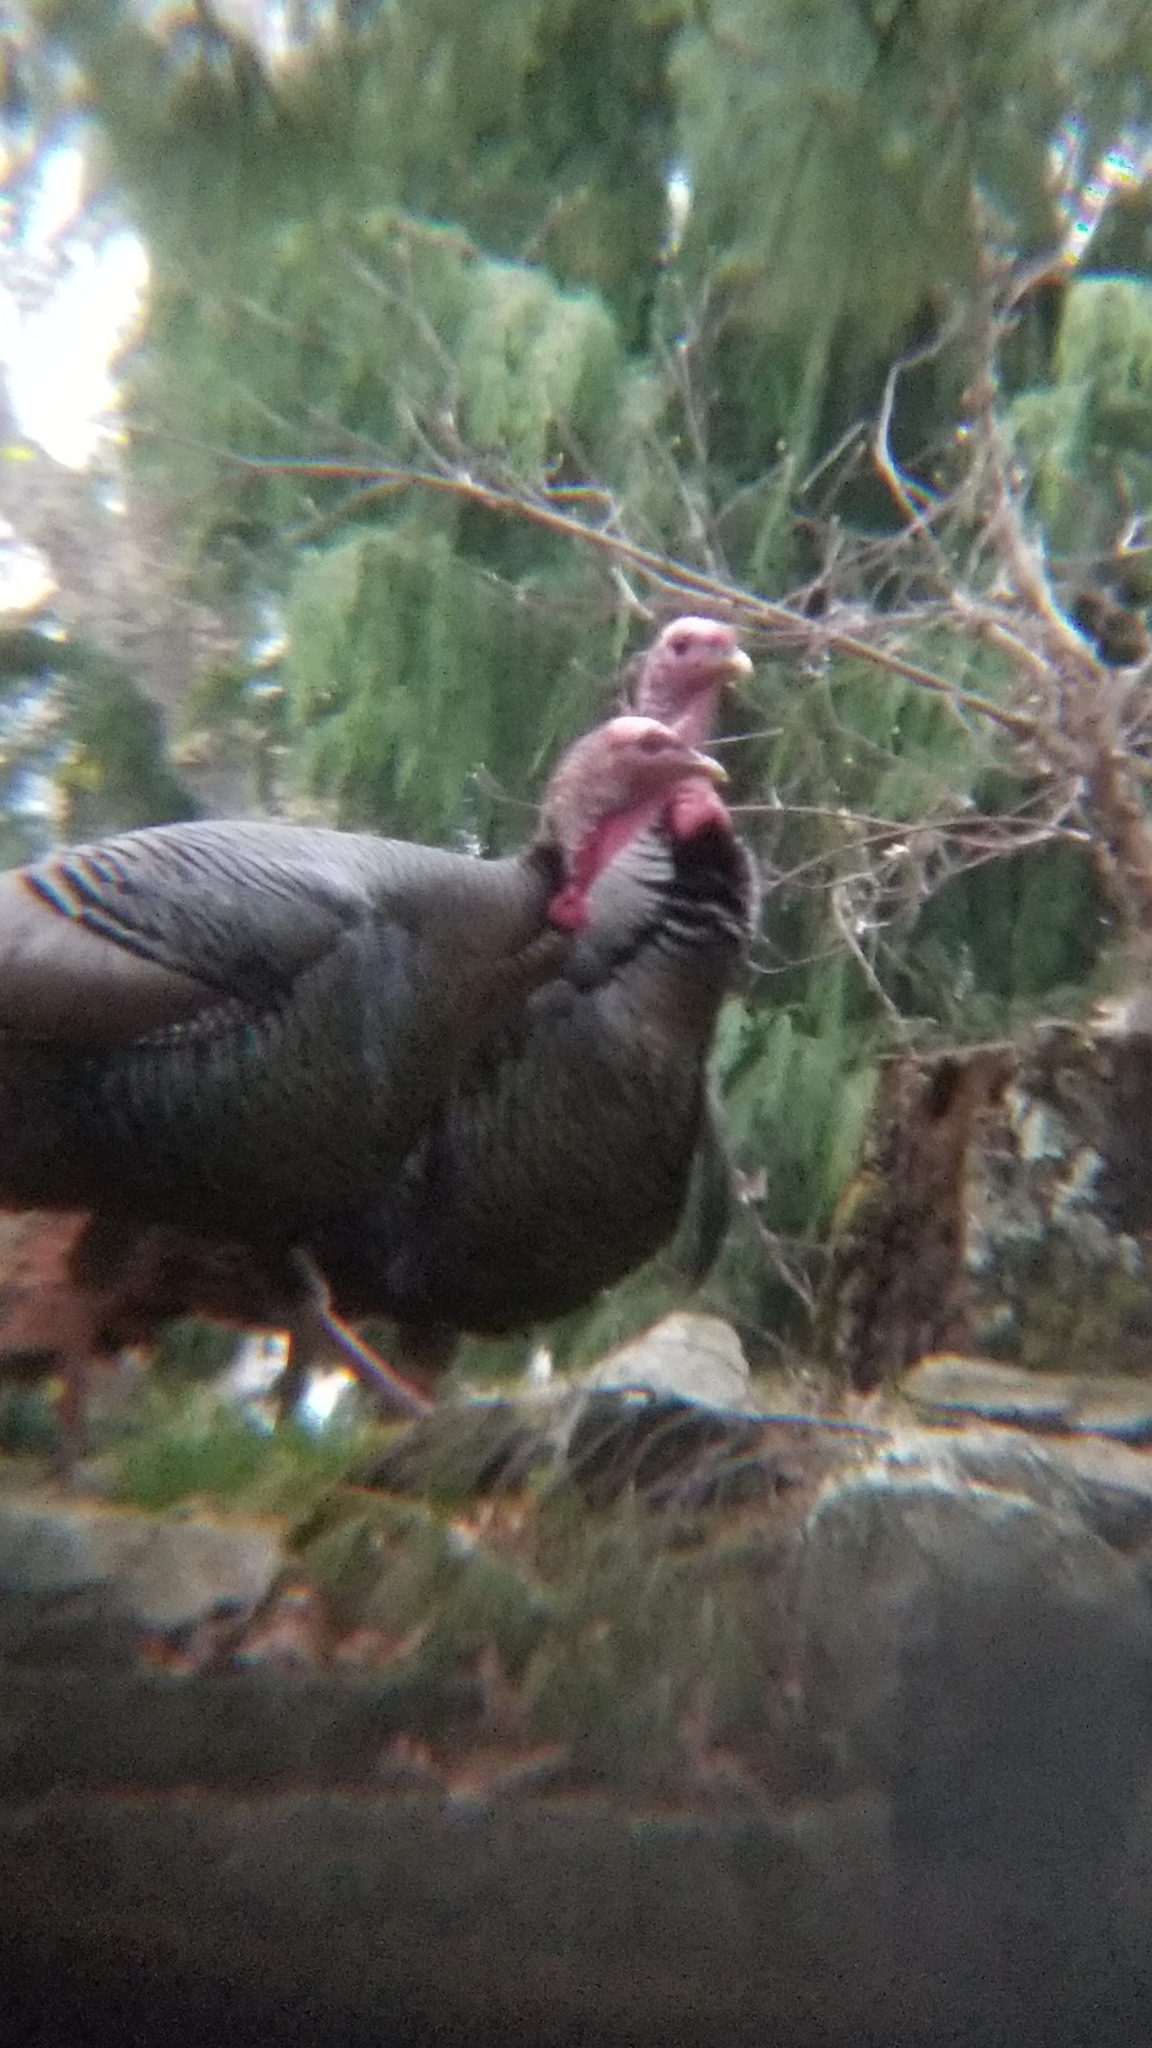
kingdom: Animalia
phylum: Chordata
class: Aves
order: Galliformes
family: Phasianidae
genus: Meleagris
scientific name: Meleagris gallopavo
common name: Wild turkey
